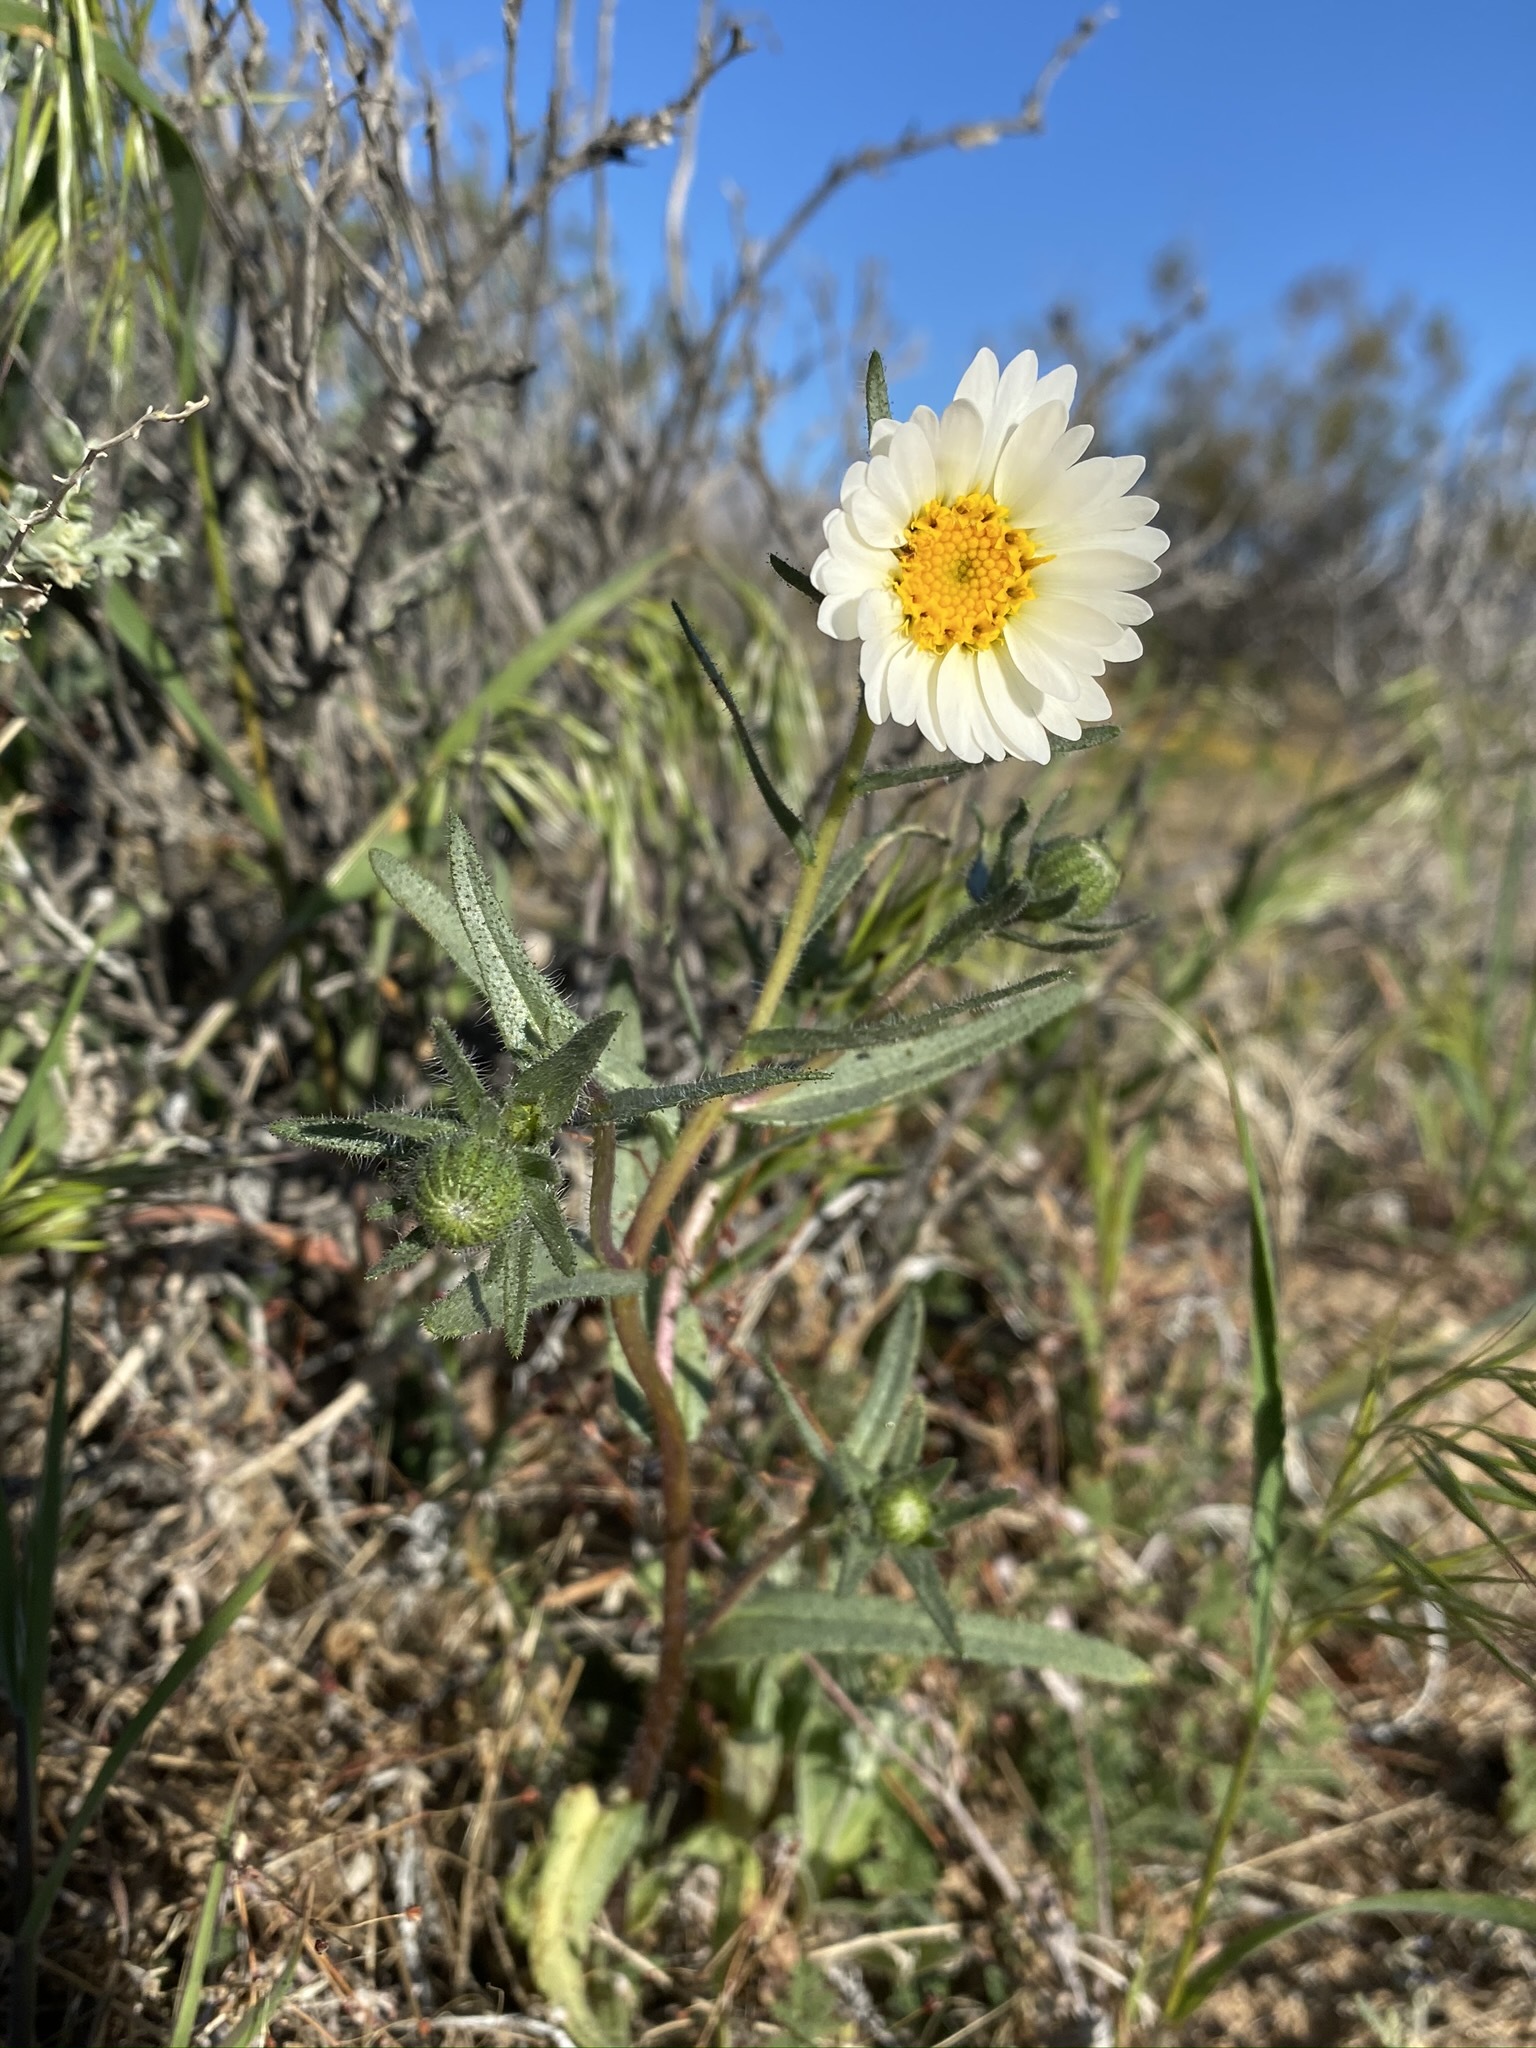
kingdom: Plantae
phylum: Tracheophyta
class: Magnoliopsida
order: Asterales
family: Asteraceae
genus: Layia
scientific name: Layia glandulosa
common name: White layia
